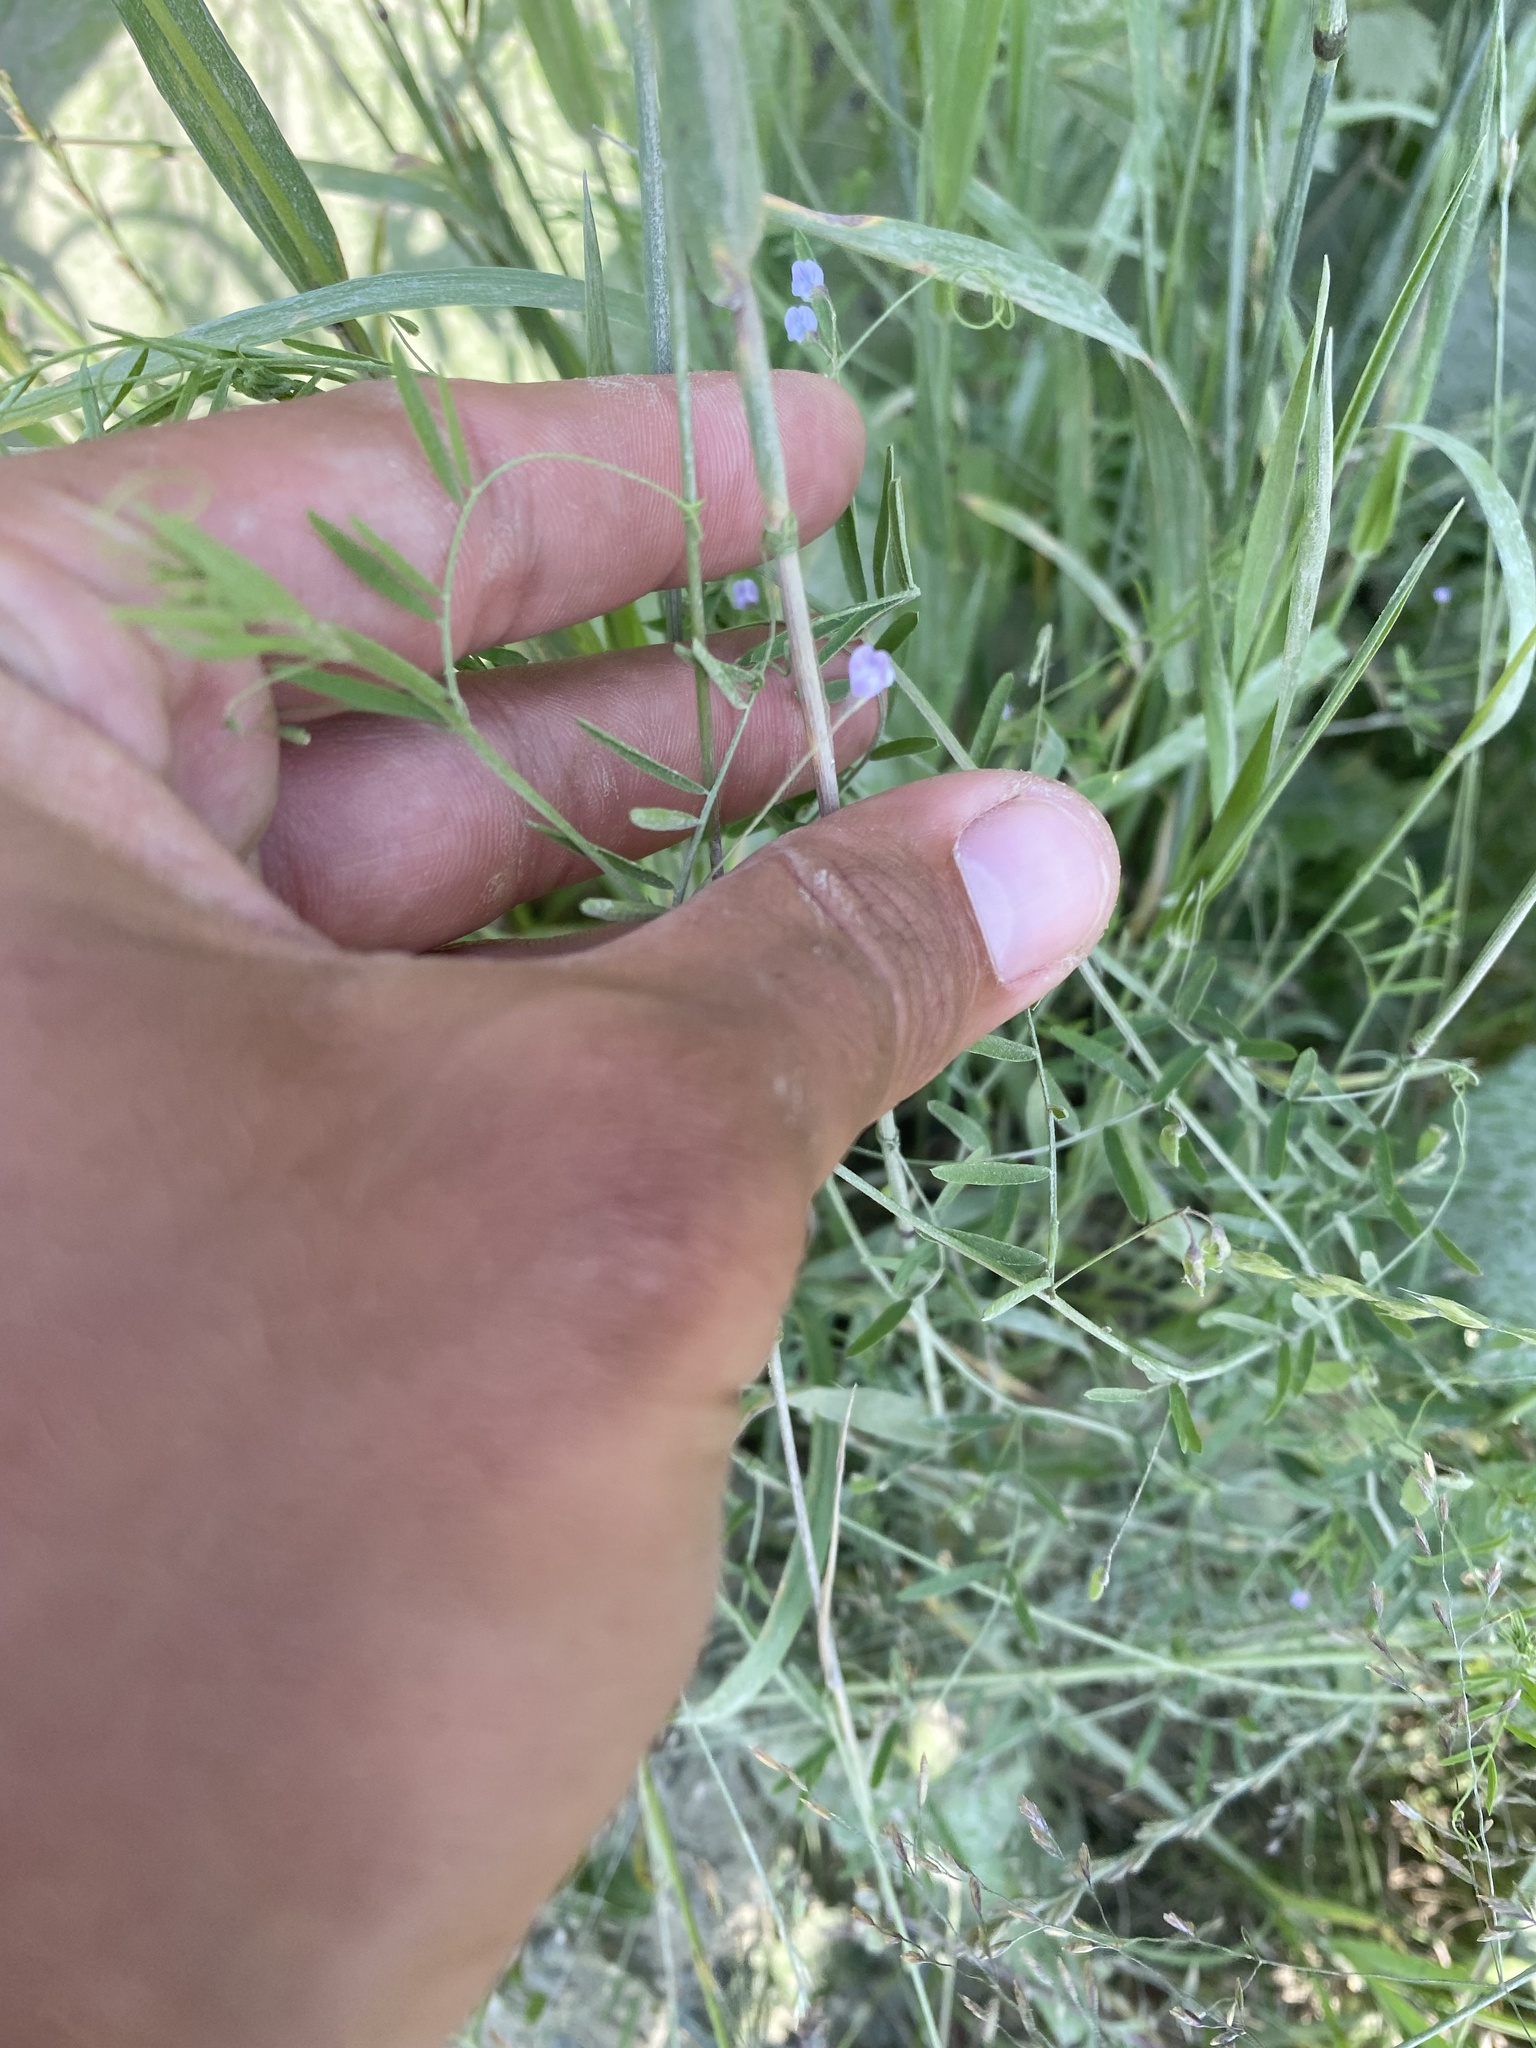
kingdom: Plantae
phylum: Tracheophyta
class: Magnoliopsida
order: Fabales
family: Fabaceae
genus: Vicia
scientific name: Vicia tetrasperma
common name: Smooth tare
